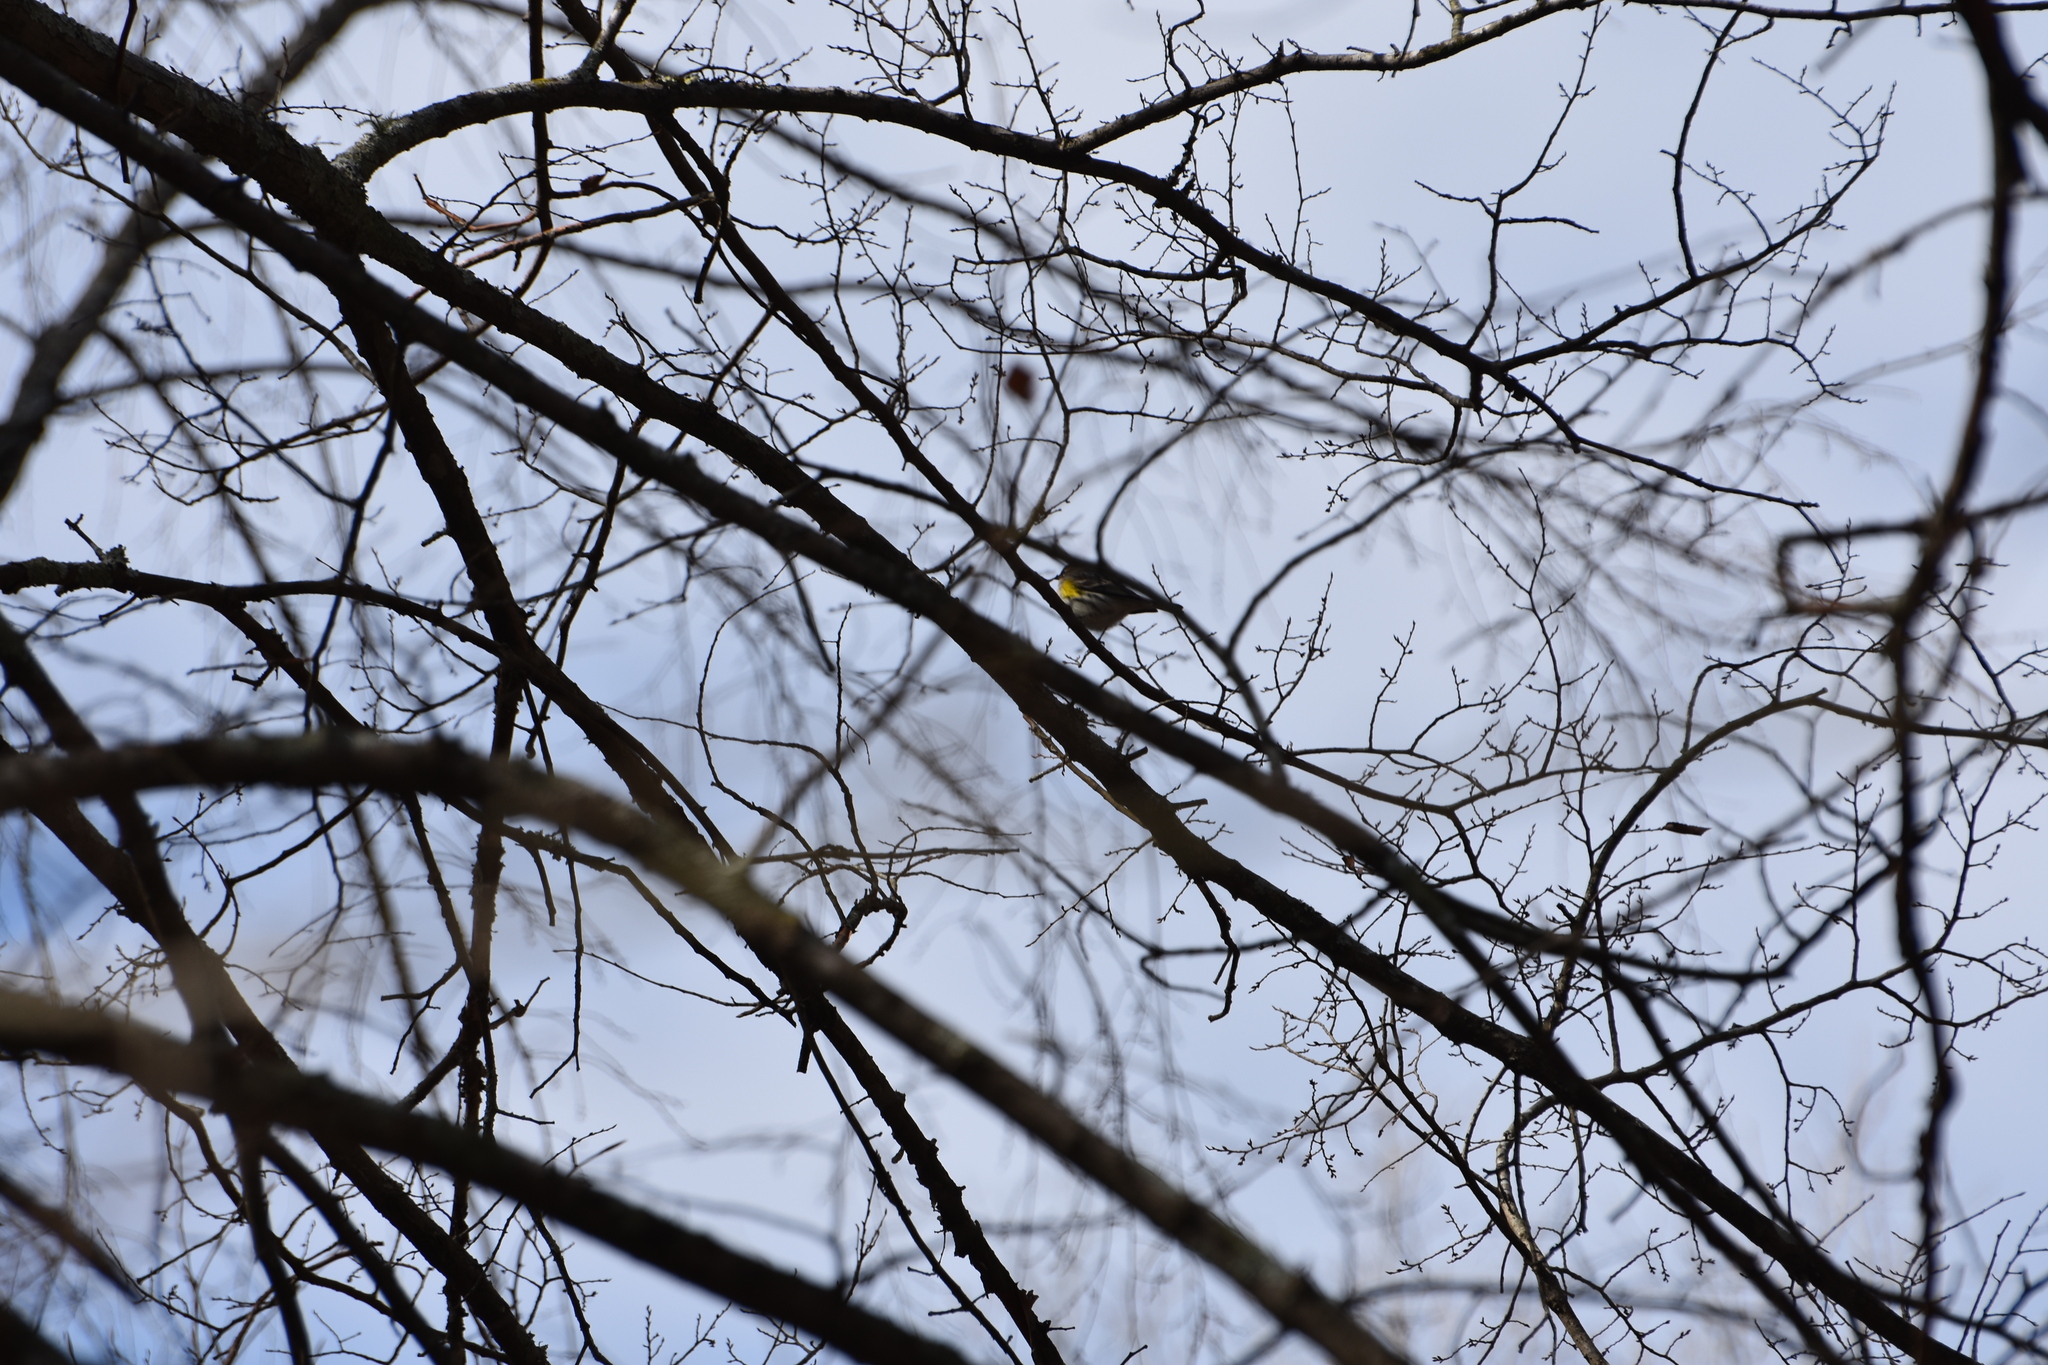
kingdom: Animalia
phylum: Chordata
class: Aves
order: Passeriformes
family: Parulidae
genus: Setophaga
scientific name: Setophaga coronata
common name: Myrtle warbler
